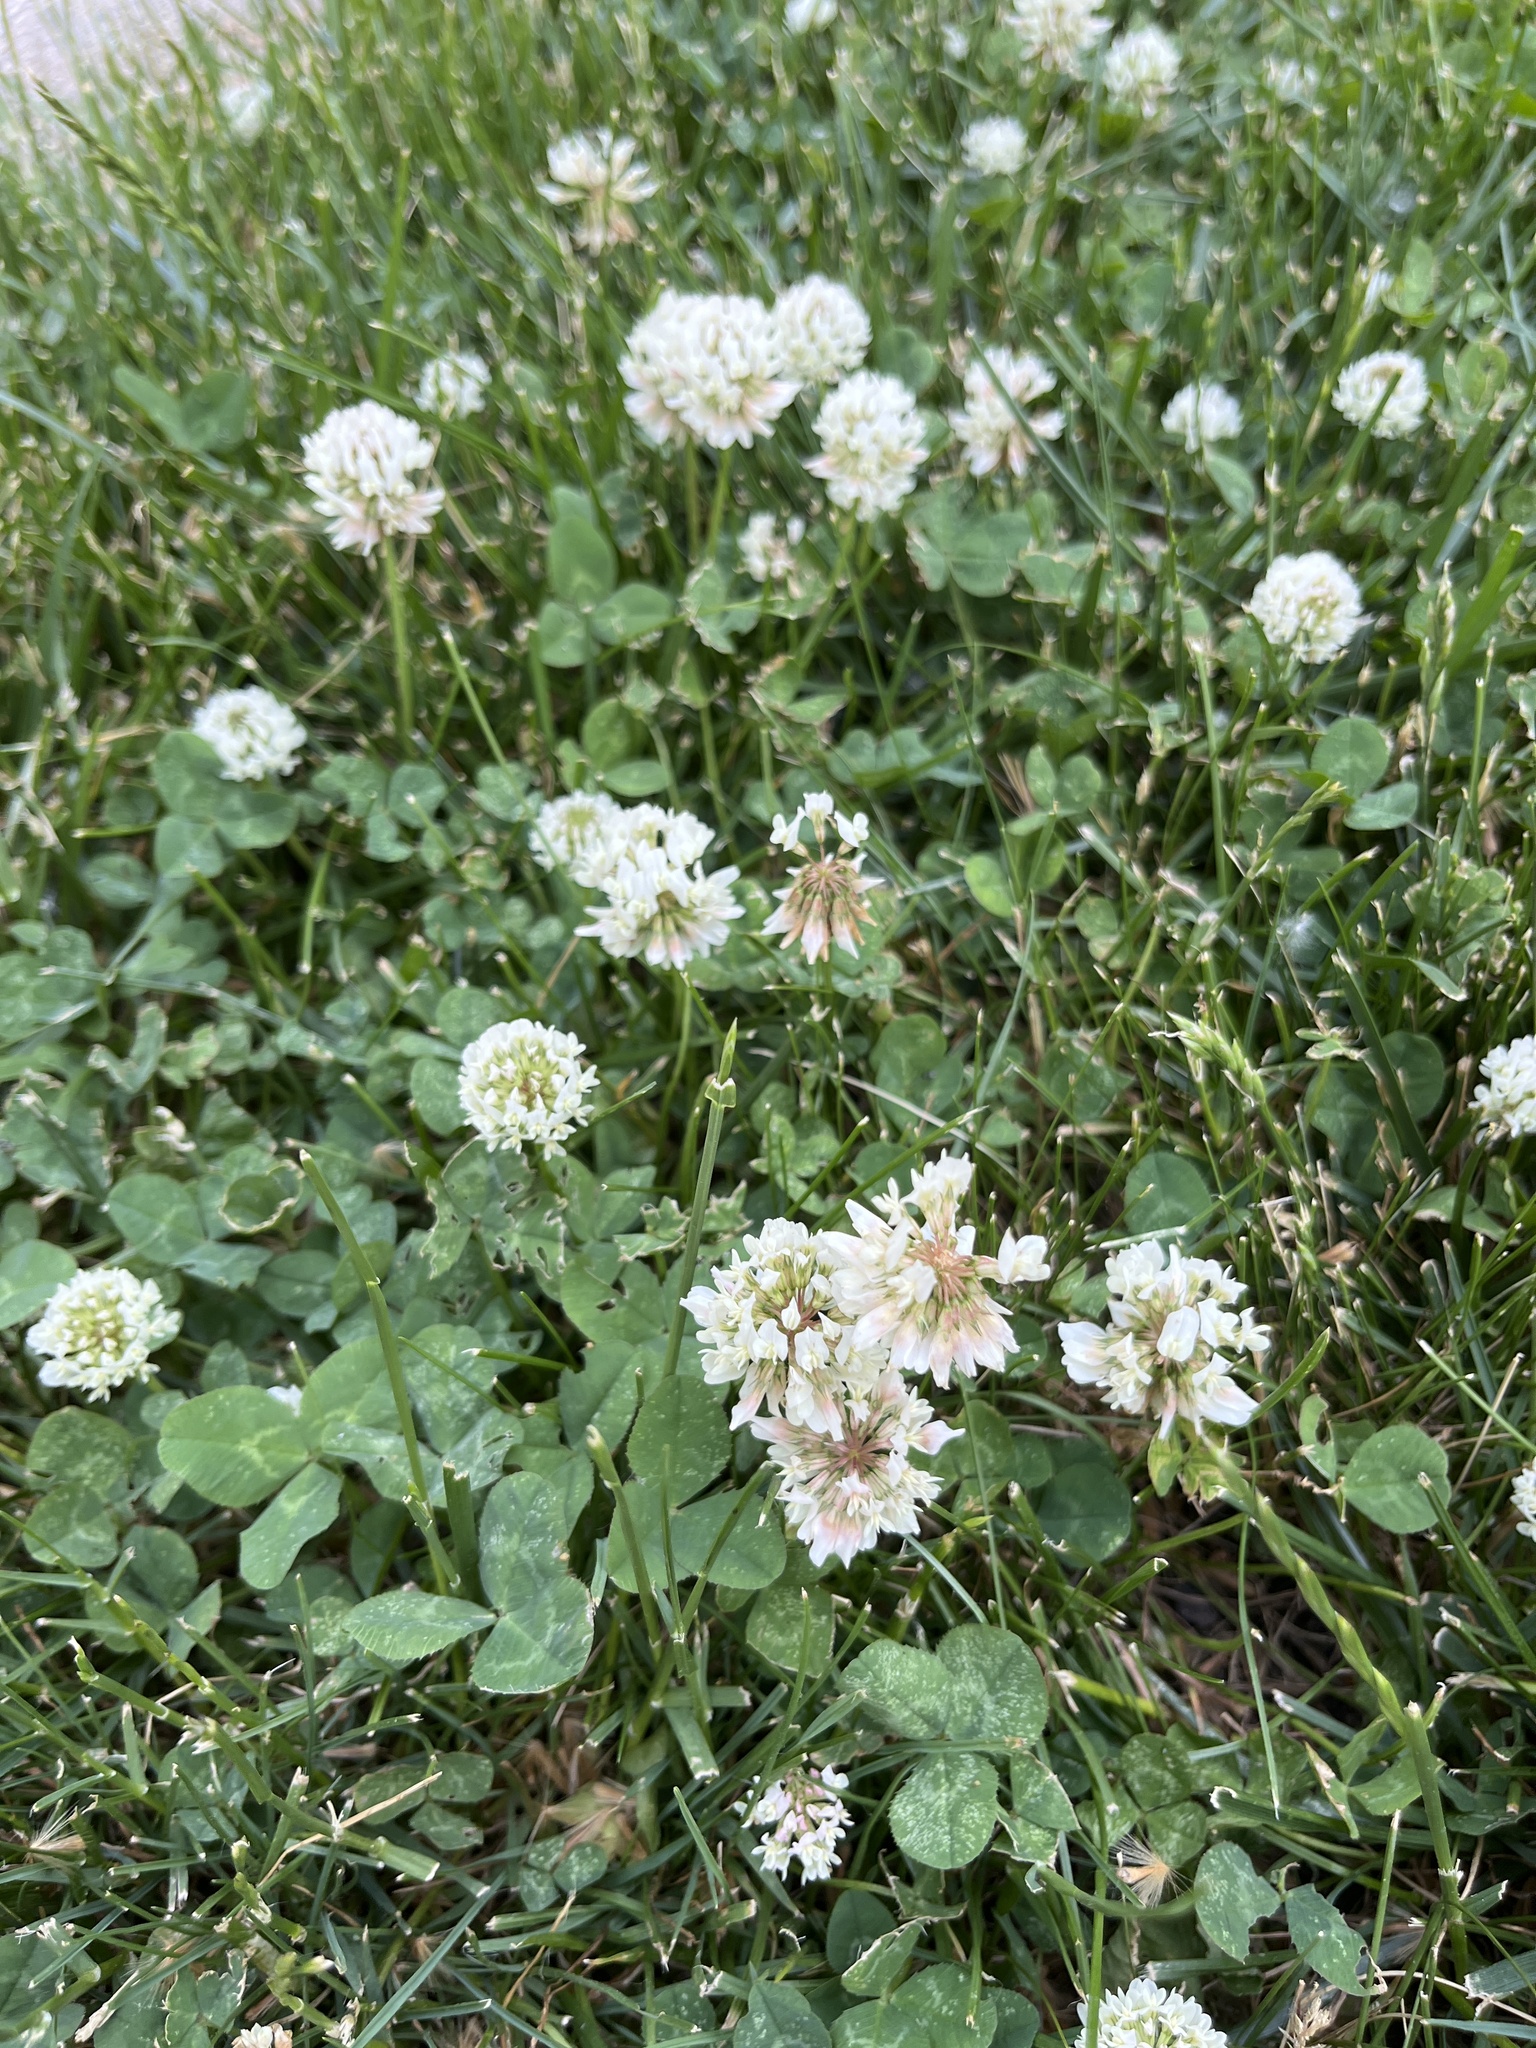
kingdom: Plantae
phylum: Tracheophyta
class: Magnoliopsida
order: Fabales
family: Fabaceae
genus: Trifolium
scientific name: Trifolium repens
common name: White clover
